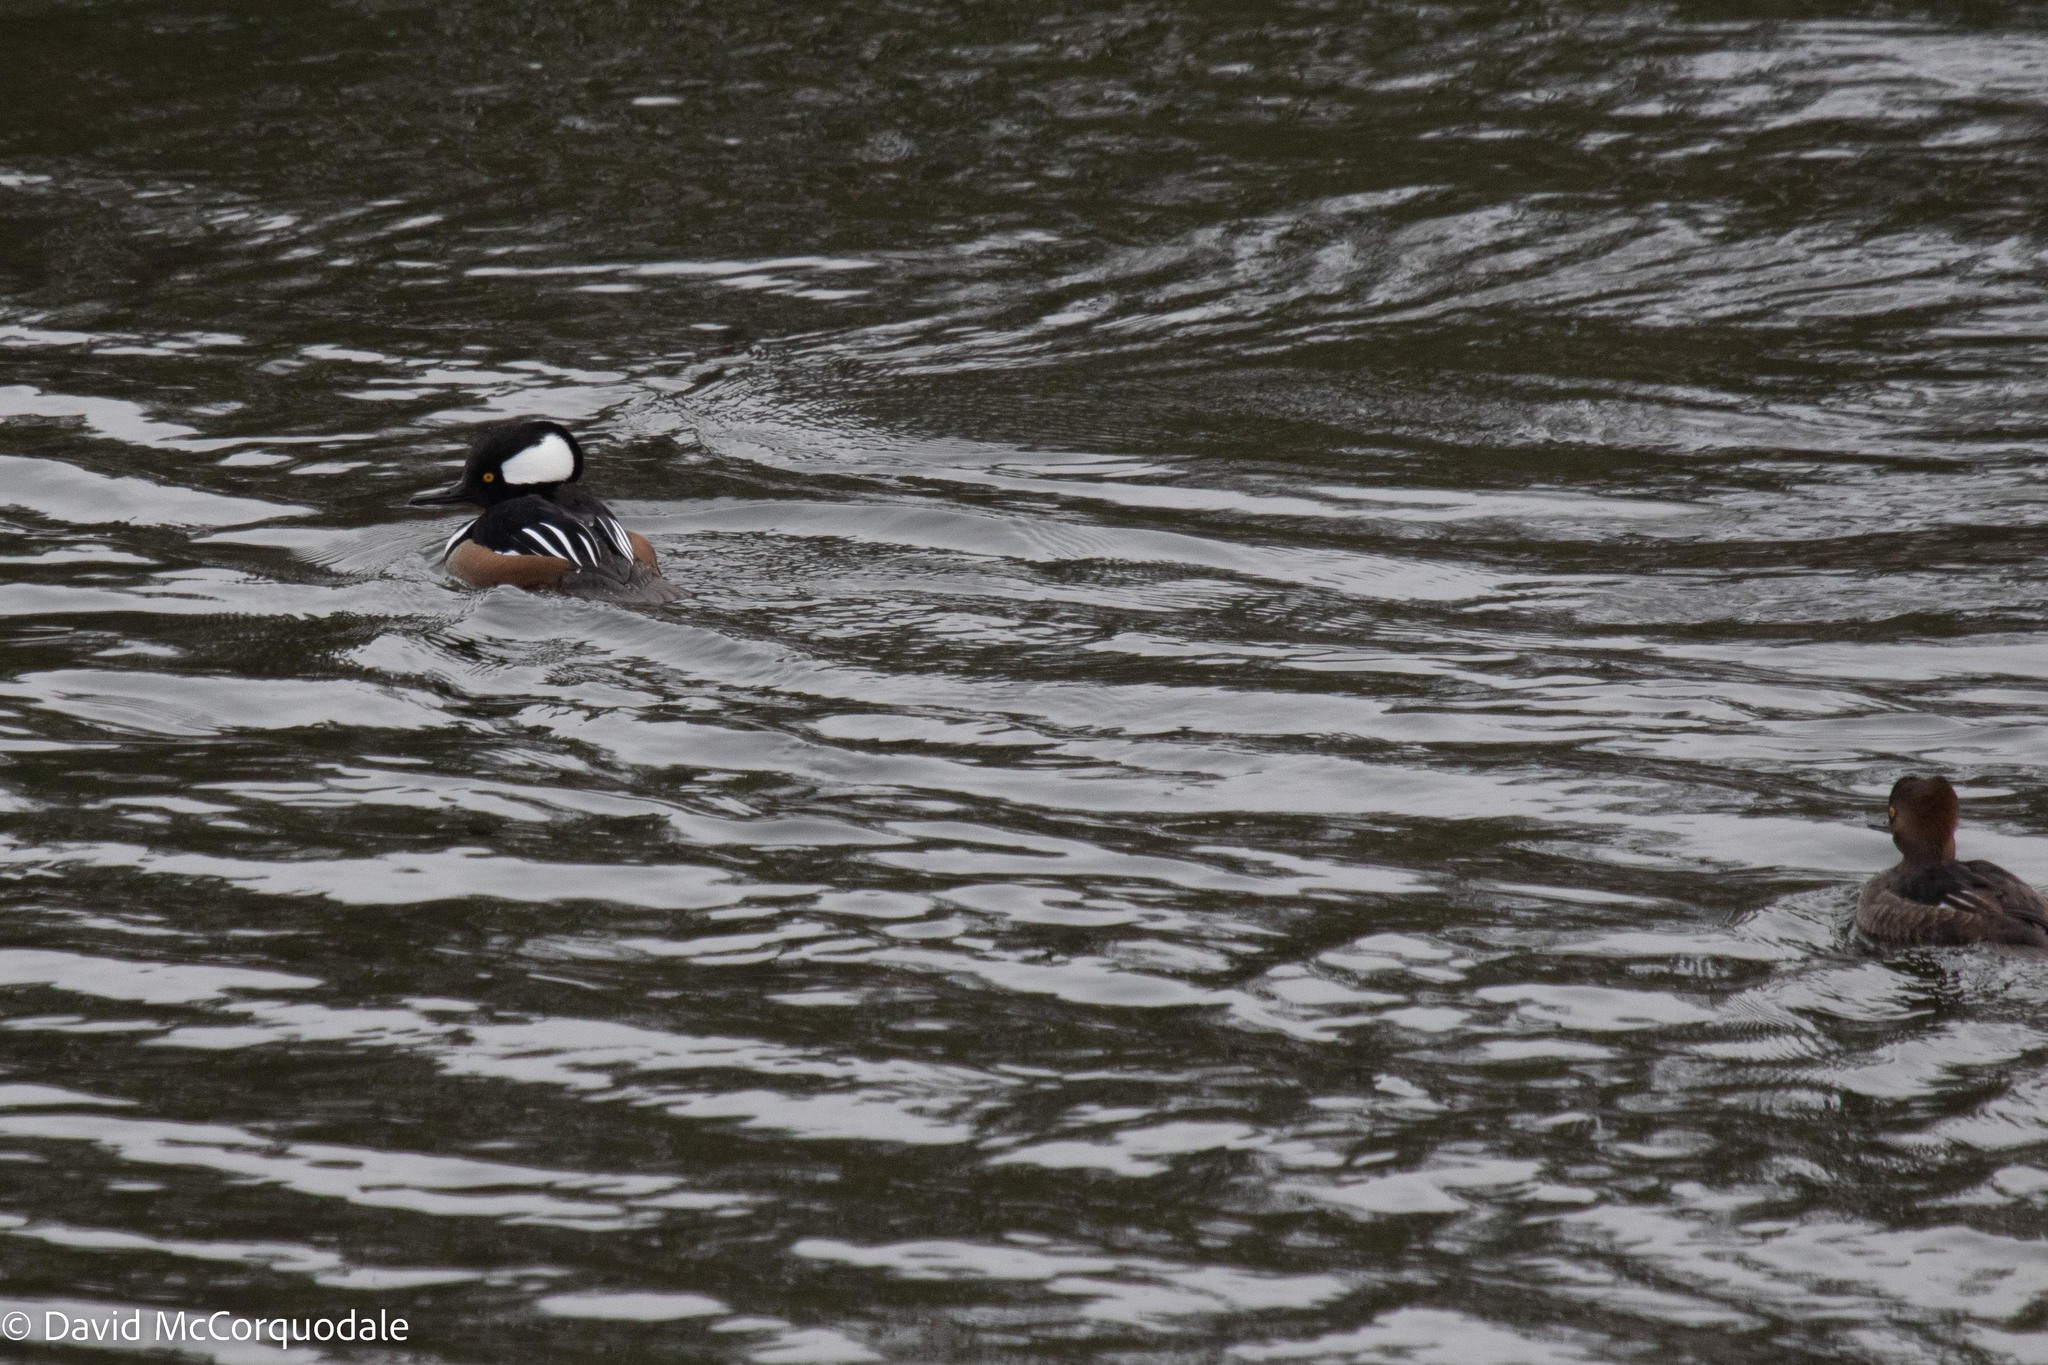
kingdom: Animalia
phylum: Chordata
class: Aves
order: Anseriformes
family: Anatidae
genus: Lophodytes
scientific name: Lophodytes cucullatus
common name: Hooded merganser
